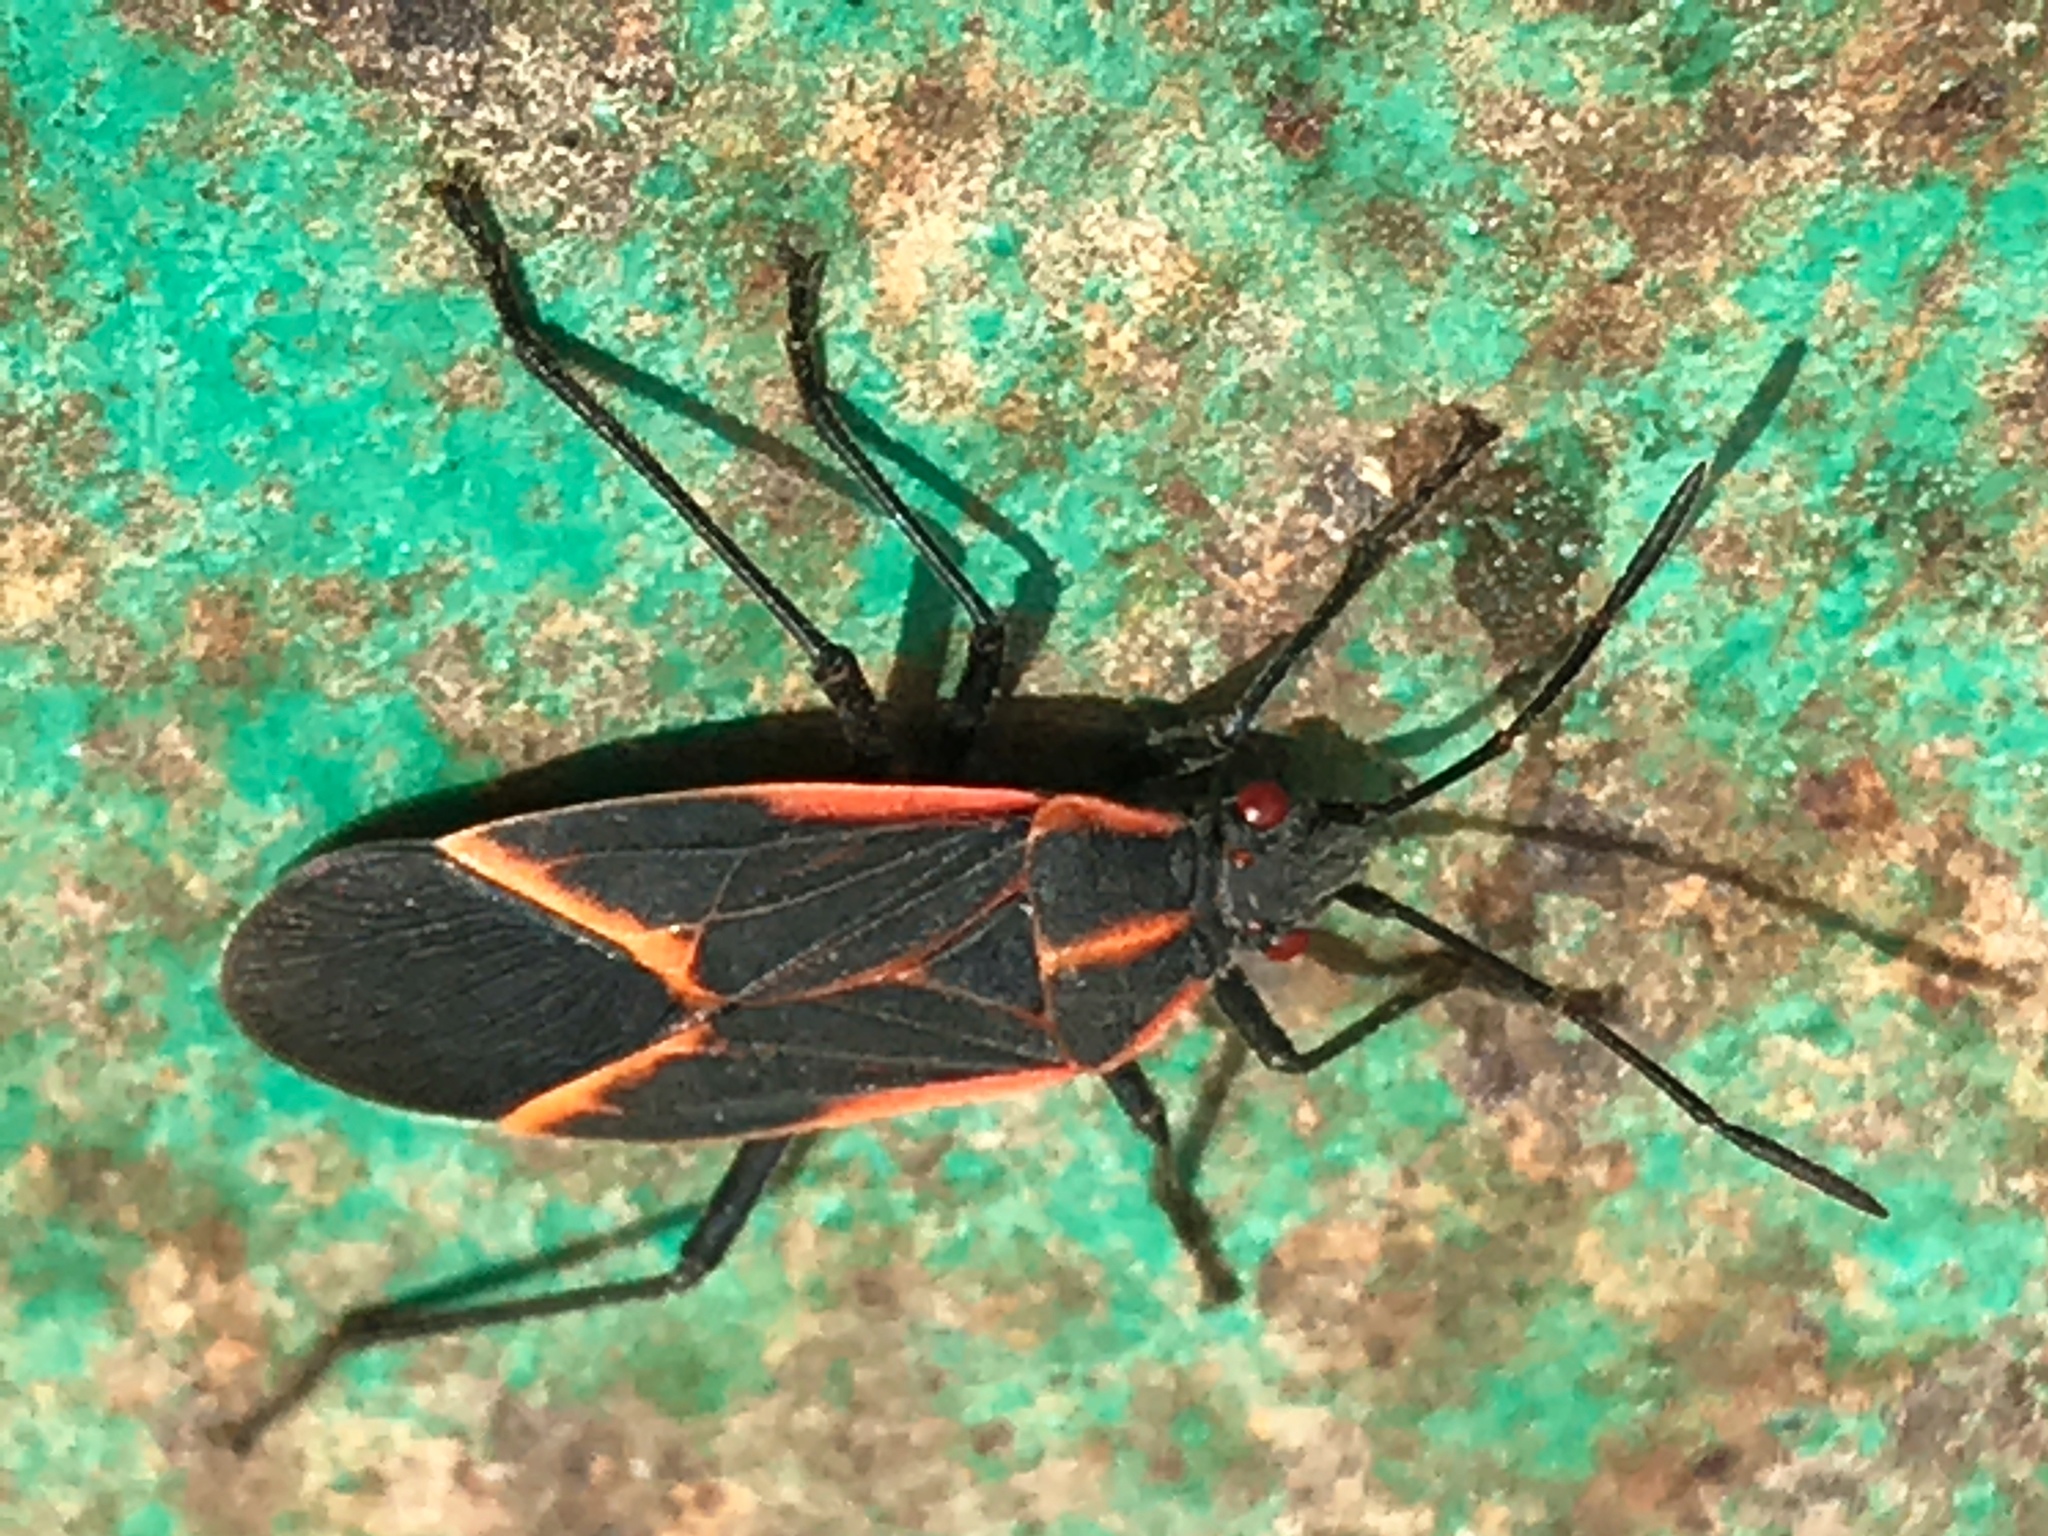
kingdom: Animalia
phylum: Arthropoda
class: Insecta
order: Hemiptera
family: Rhopalidae
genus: Boisea
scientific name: Boisea trivittata
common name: Boxelder bug
